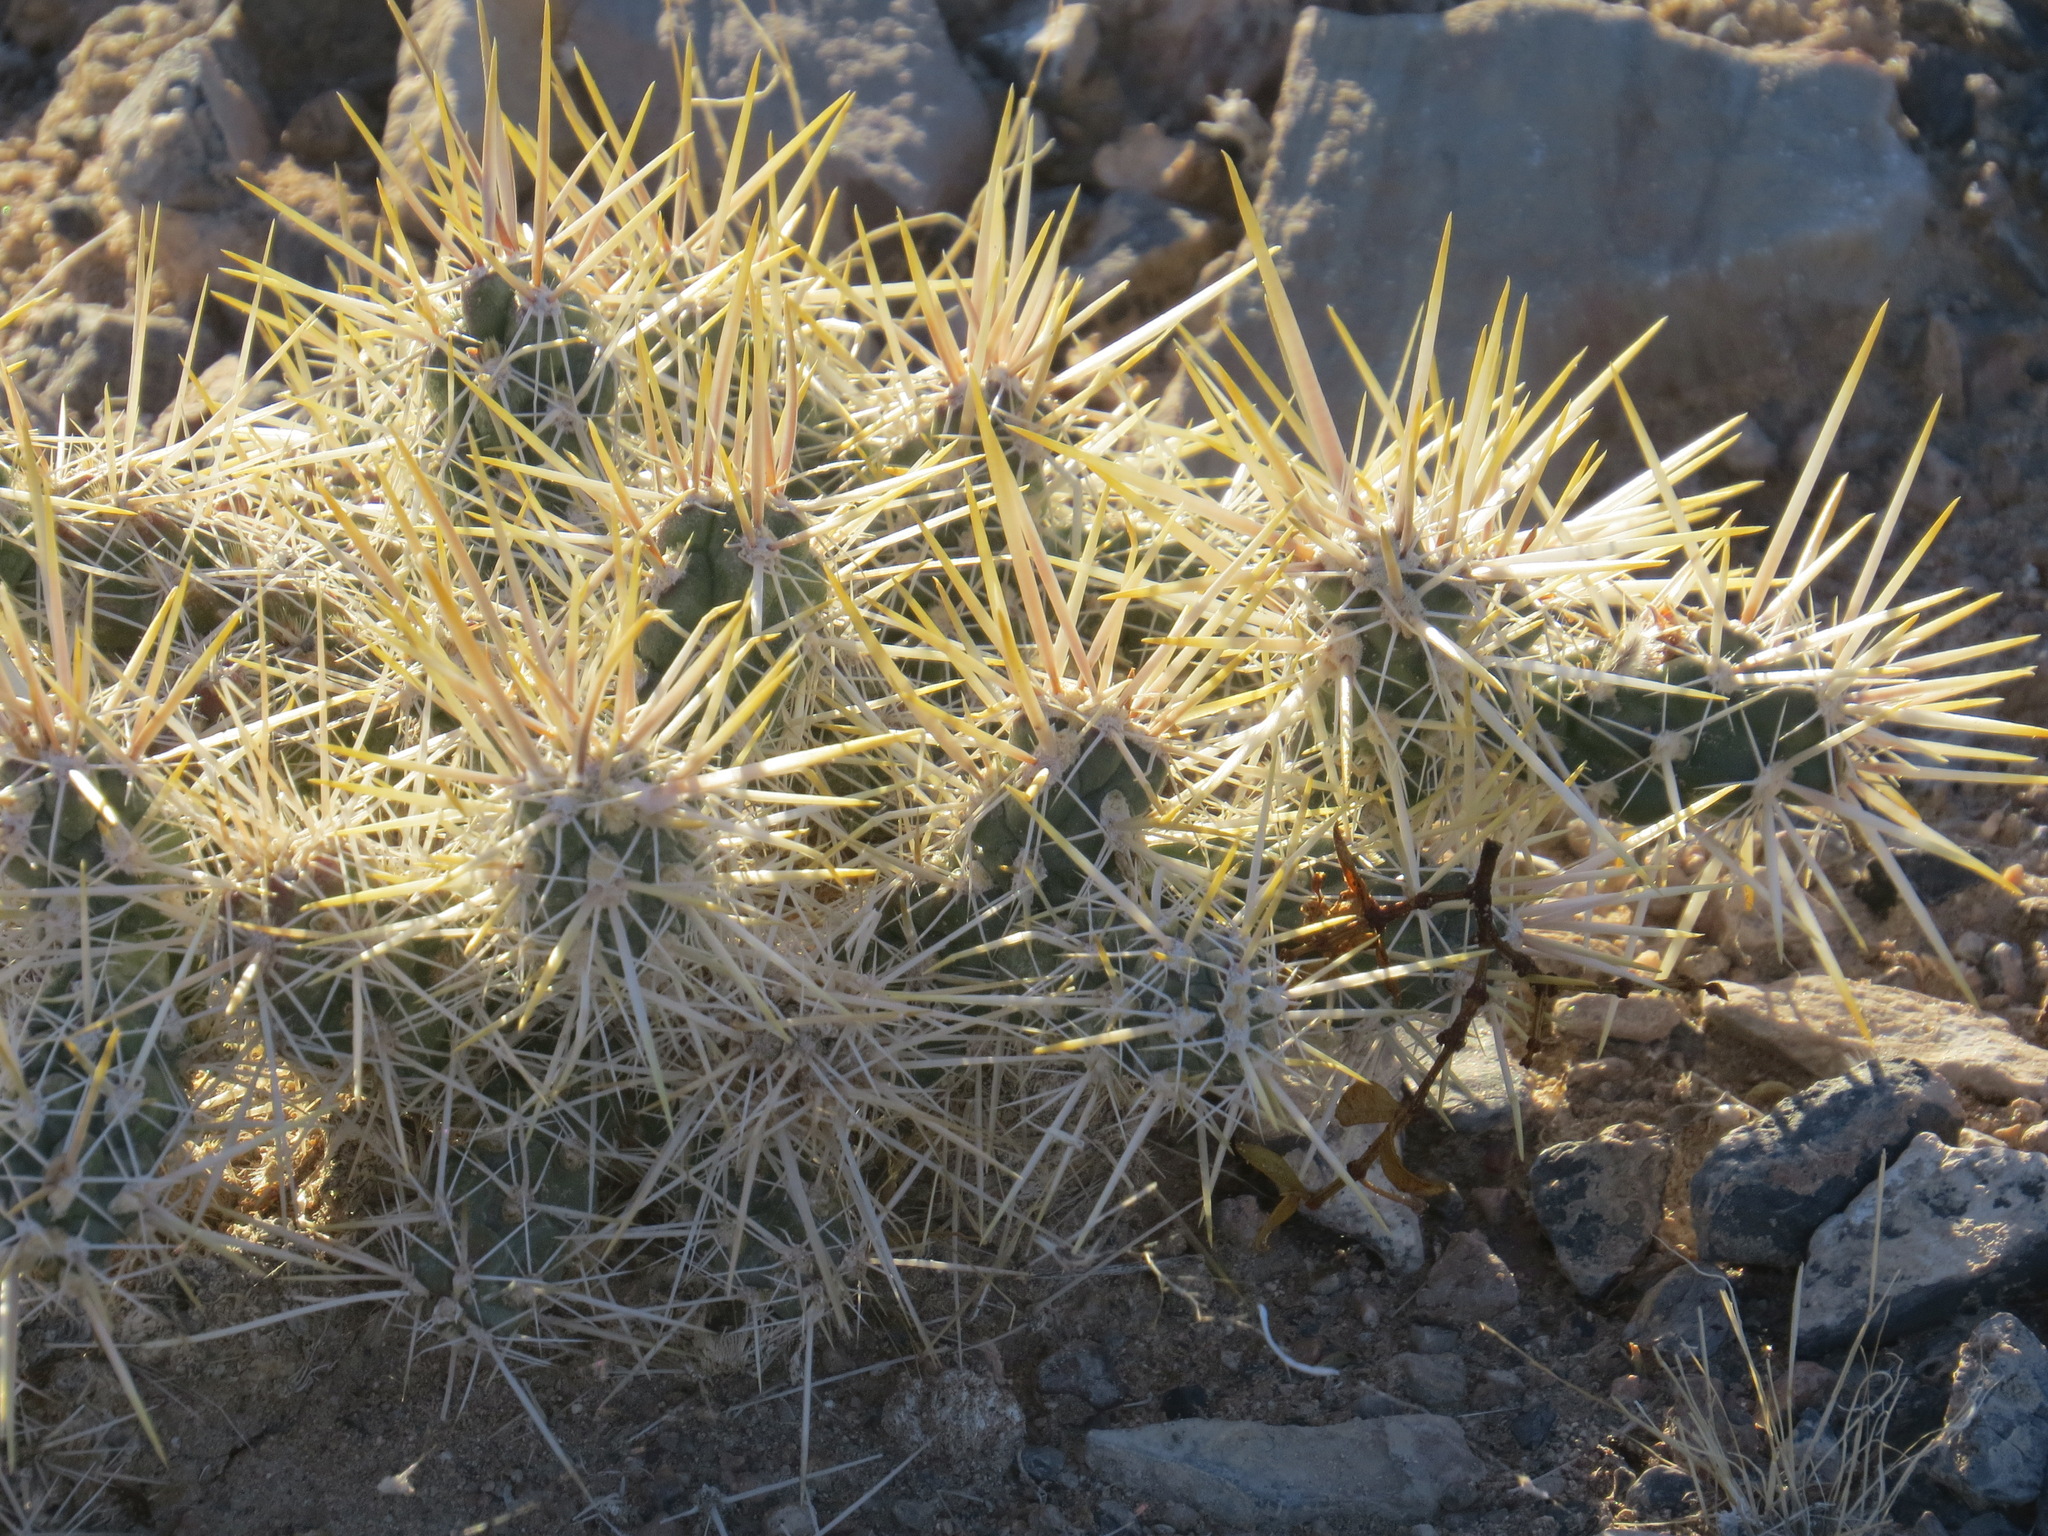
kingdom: Plantae
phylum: Tracheophyta
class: Magnoliopsida
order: Caryophyllales
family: Cactaceae
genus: Cylindropuntia
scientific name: Cylindropuntia echinocarpa
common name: Ground cholla
